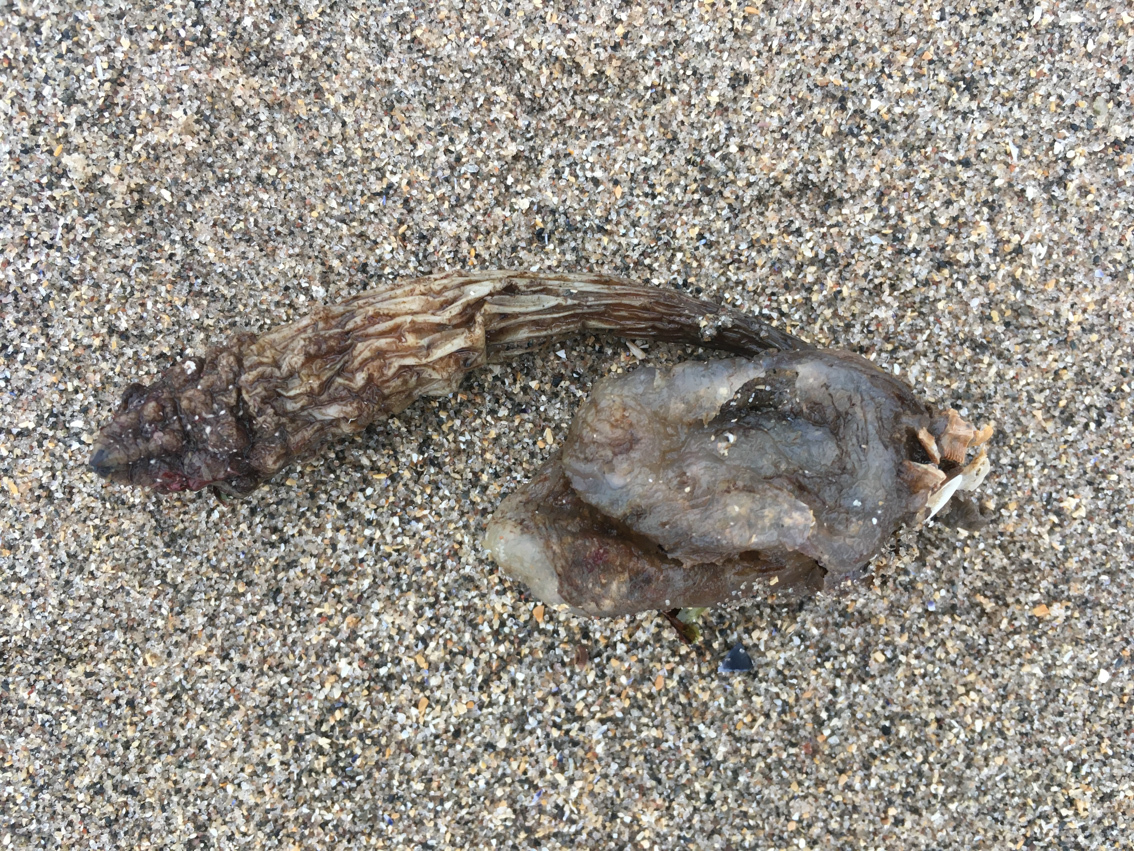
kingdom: Animalia
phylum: Chordata
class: Ascidiacea
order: Stolidobranchia
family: Styelidae
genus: Styela
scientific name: Styela clava
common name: Leathery sea squirt
